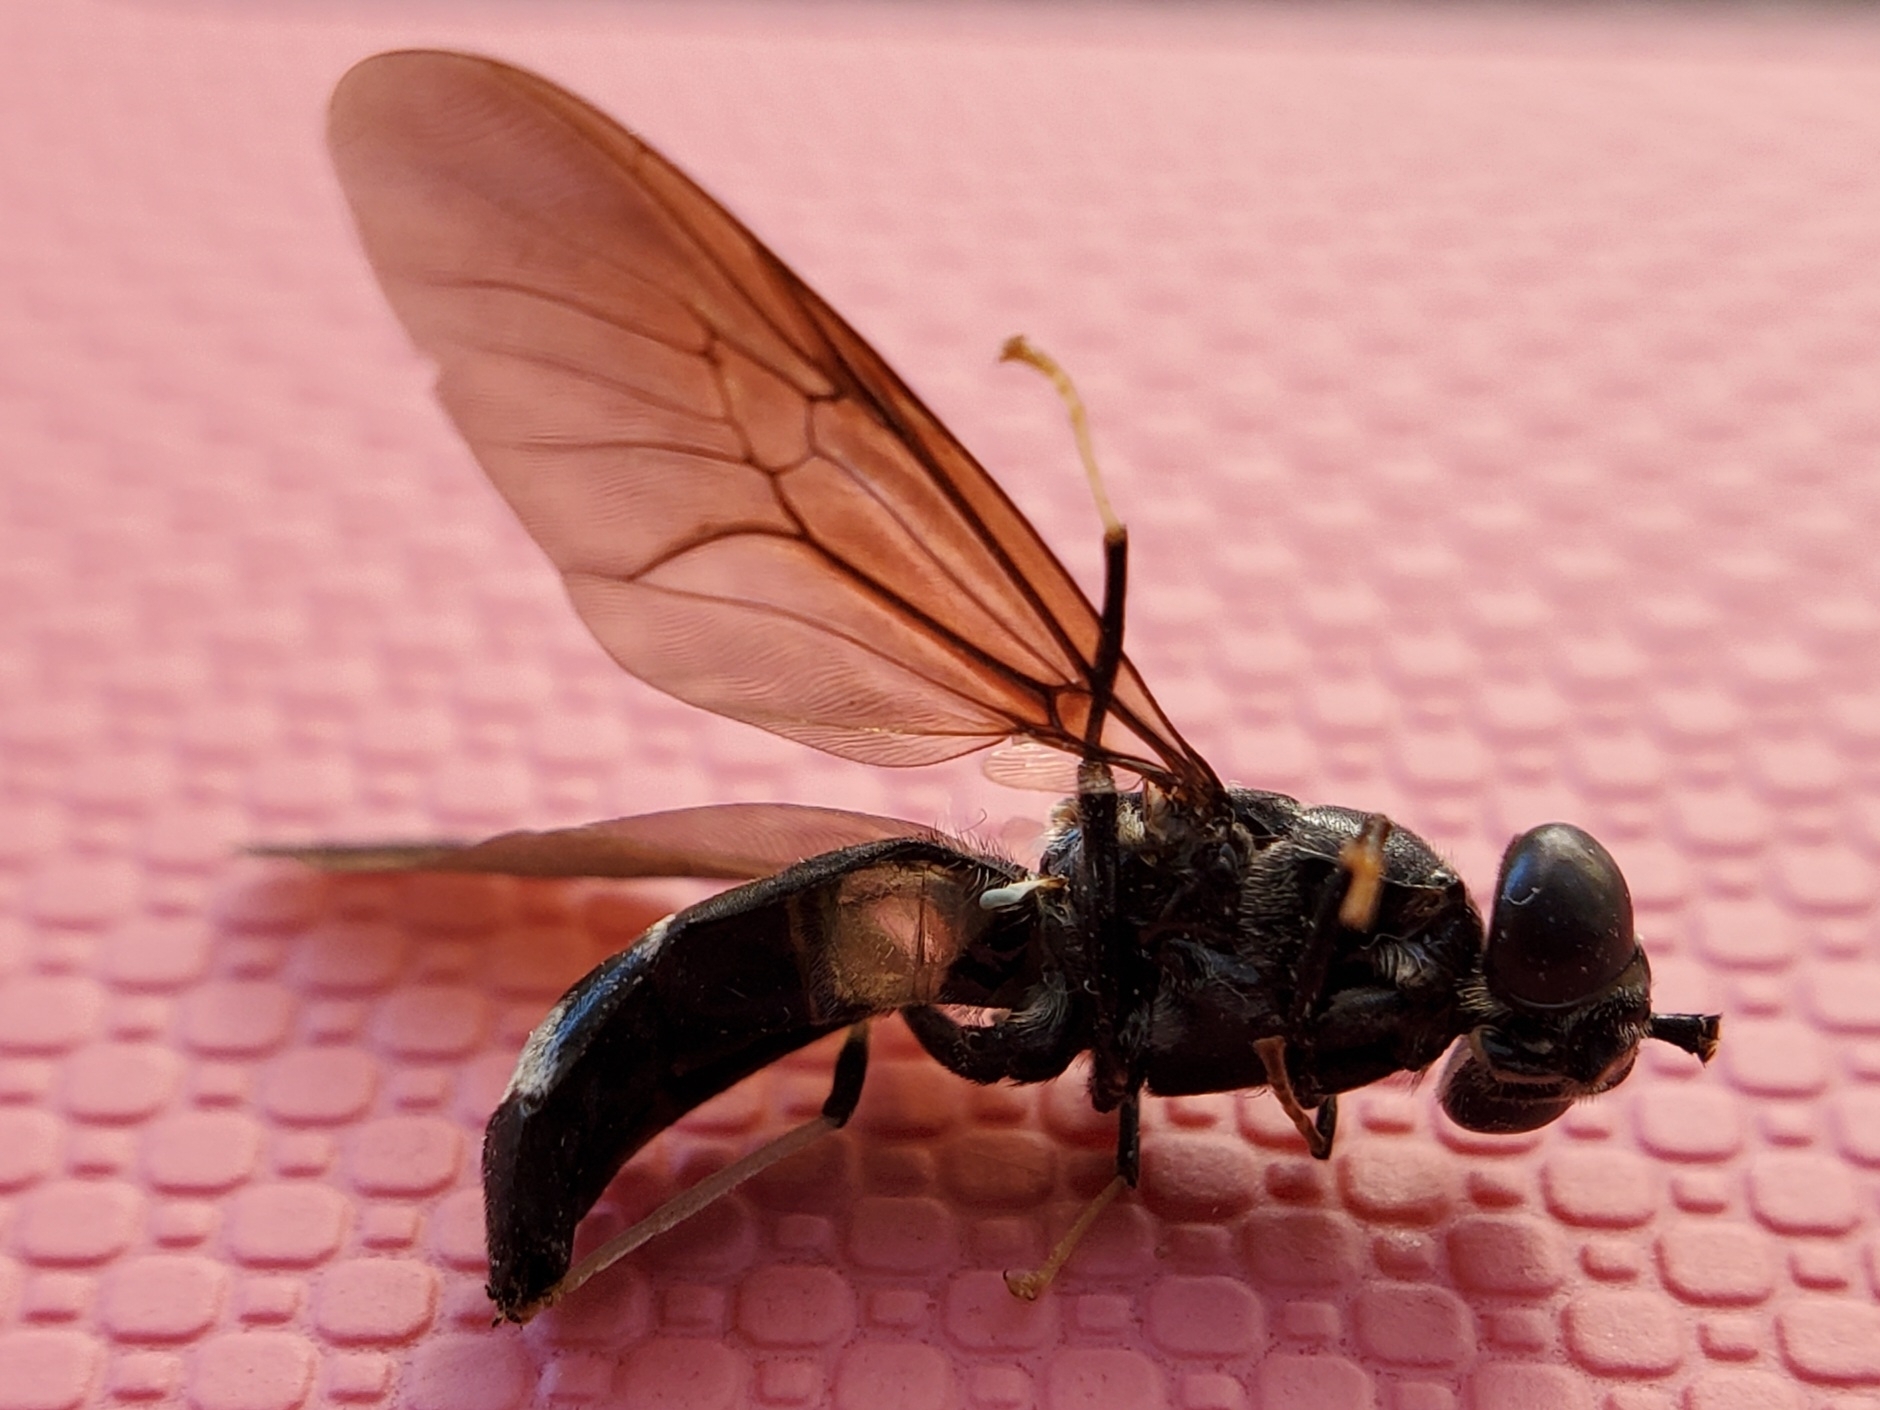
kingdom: Animalia
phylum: Arthropoda
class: Insecta
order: Diptera
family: Stratiomyidae
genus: Hermetia
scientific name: Hermetia illucens
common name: Black soldier fly
